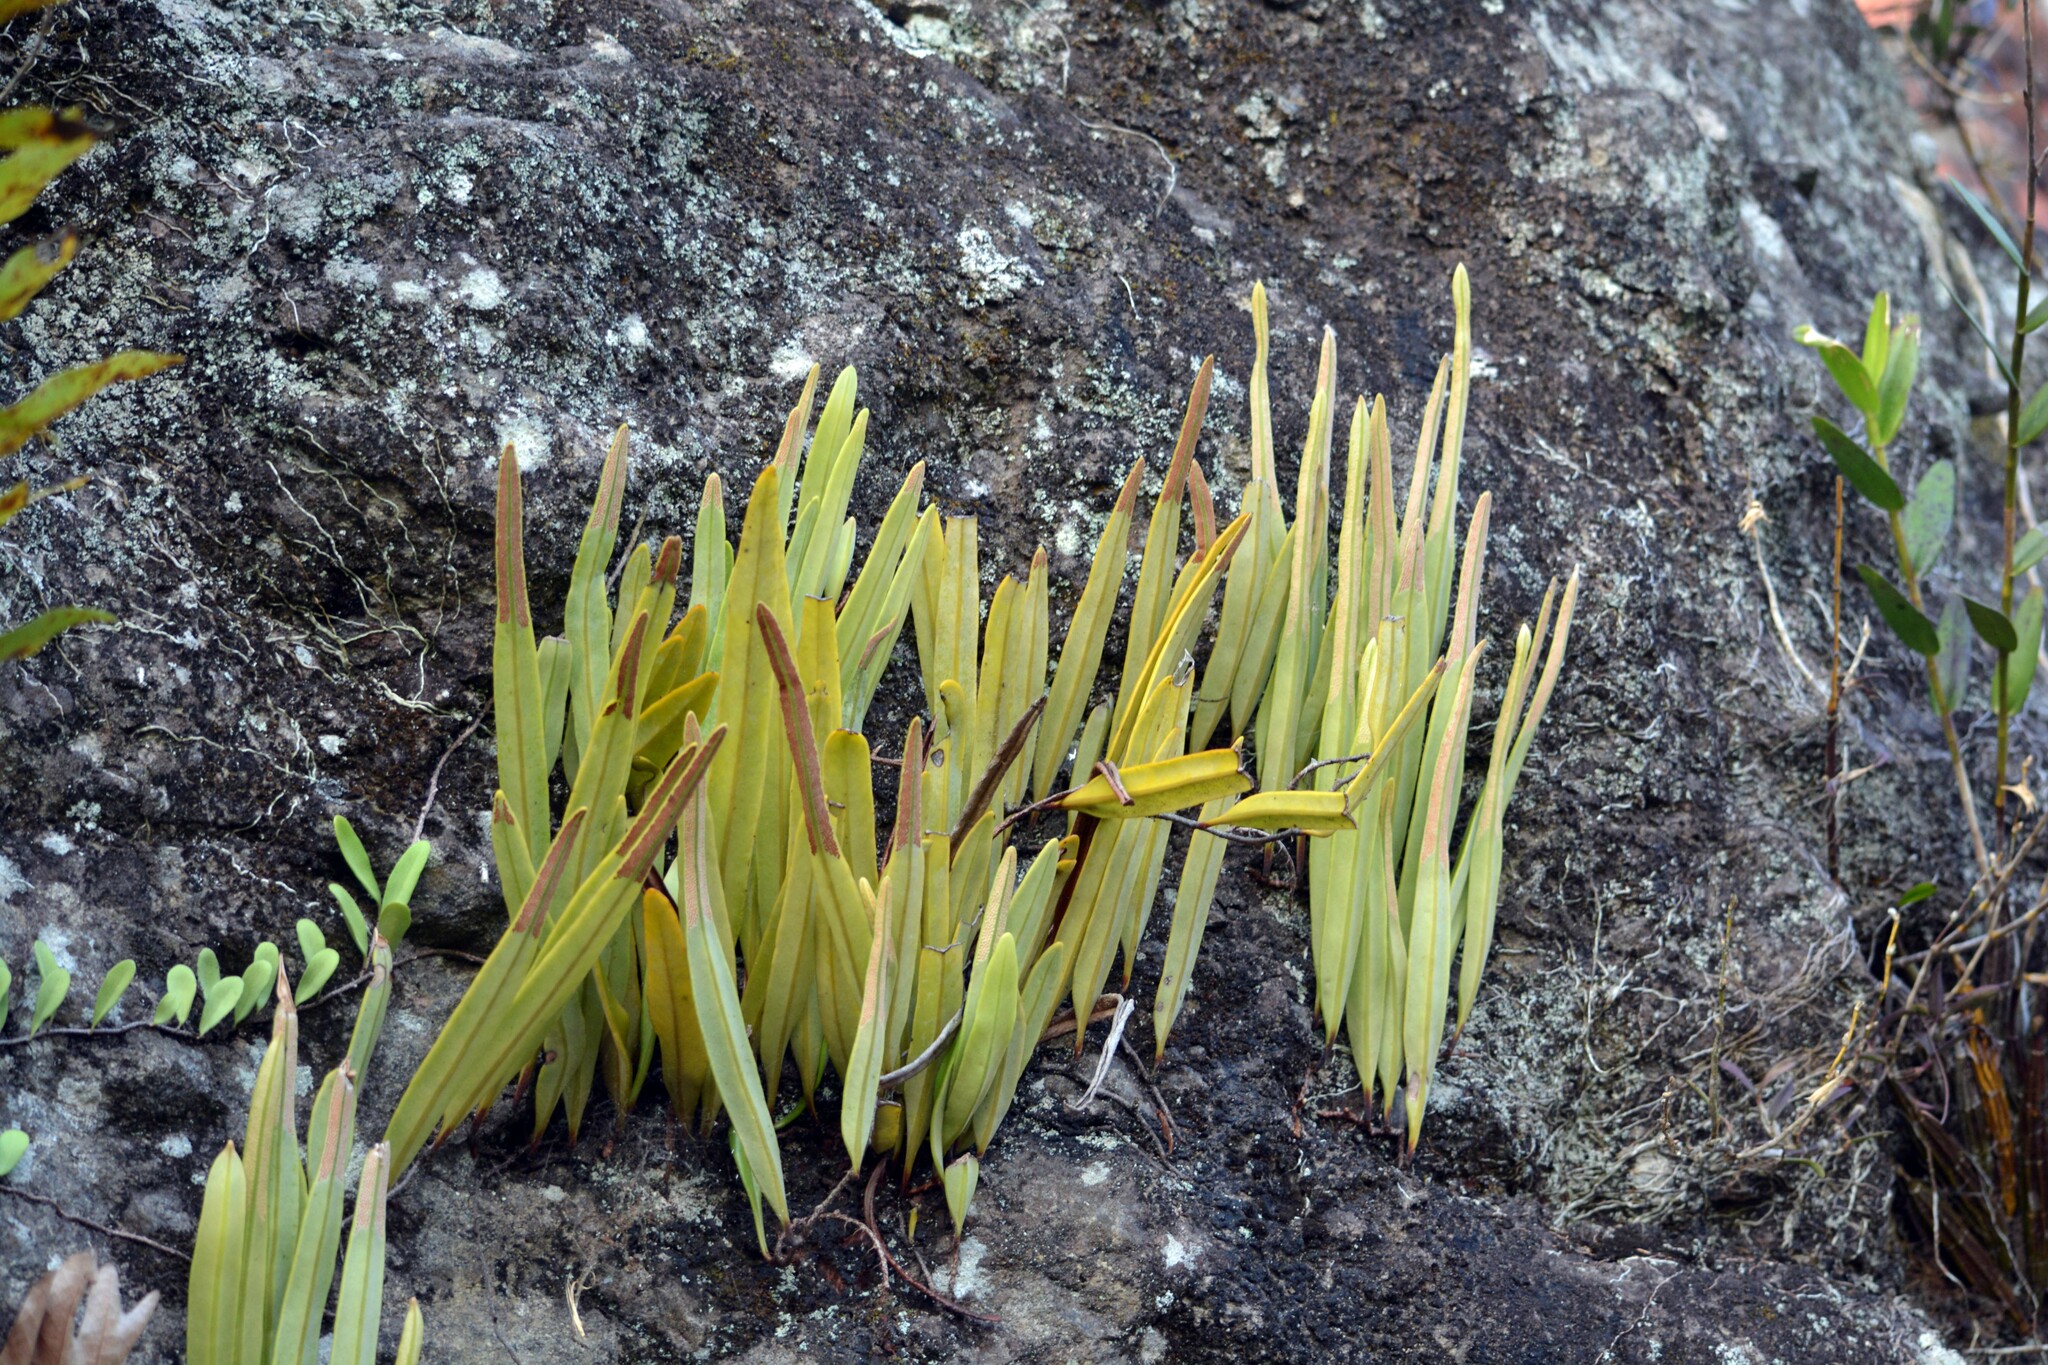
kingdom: Plantae
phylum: Tracheophyta
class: Polypodiopsida
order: Polypodiales
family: Polypodiaceae
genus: Pyrrosia
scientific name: Pyrrosia longifolia
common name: Long-leaved felt fern
